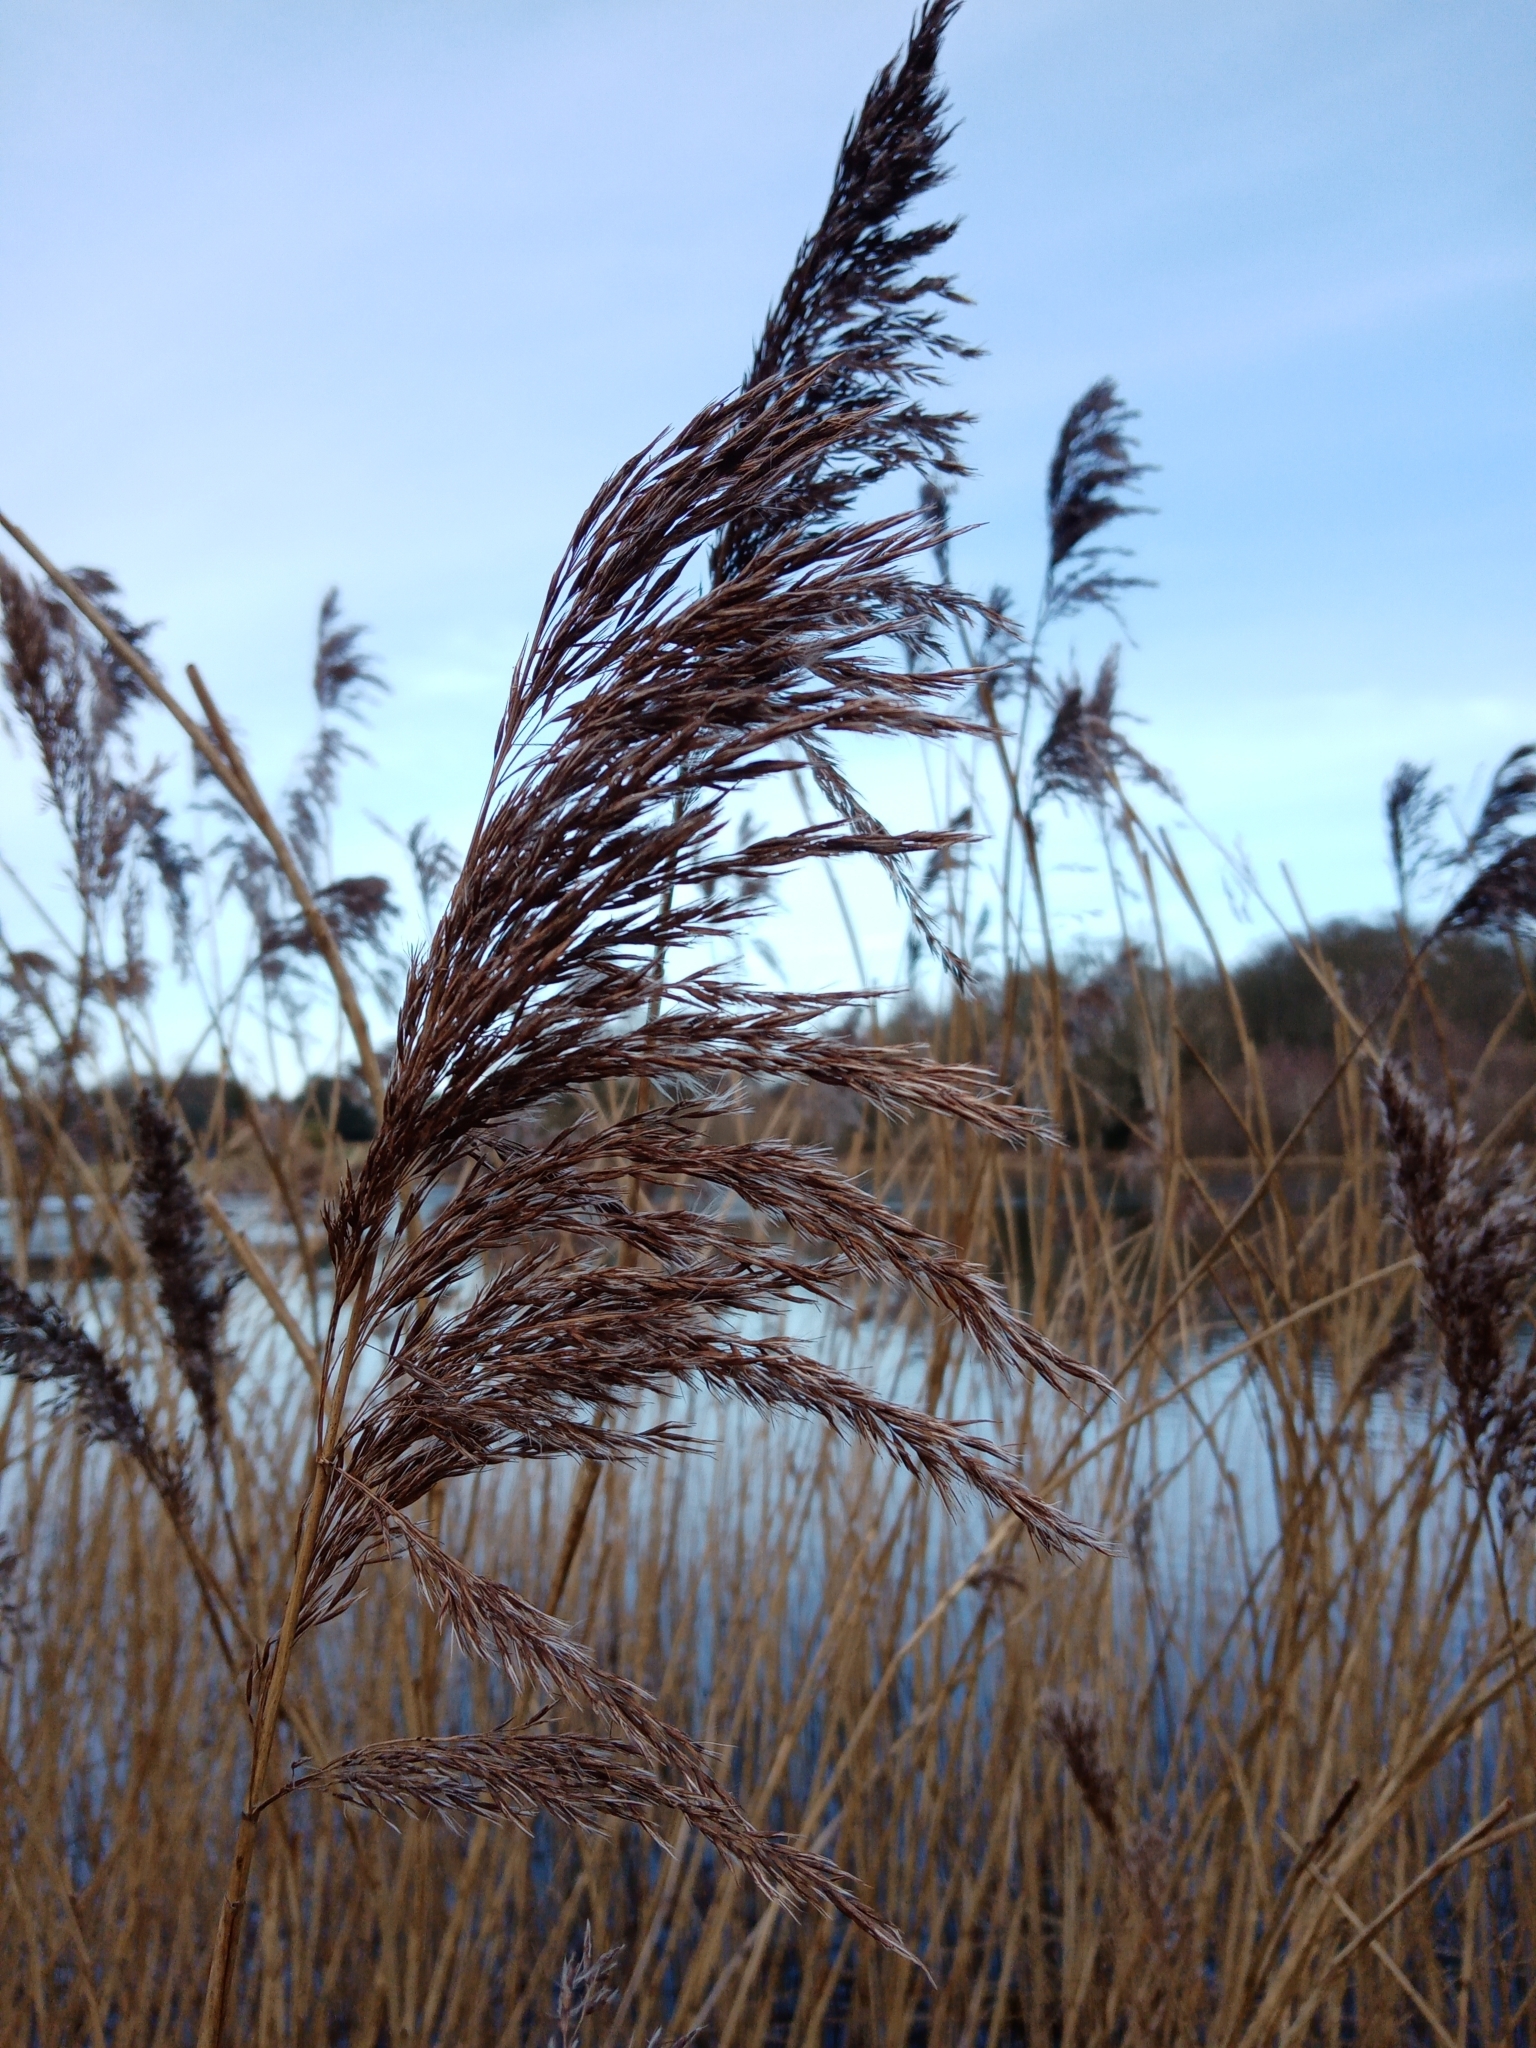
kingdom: Plantae
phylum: Tracheophyta
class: Liliopsida
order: Poales
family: Poaceae
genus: Phragmites
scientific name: Phragmites australis
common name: Common reed
